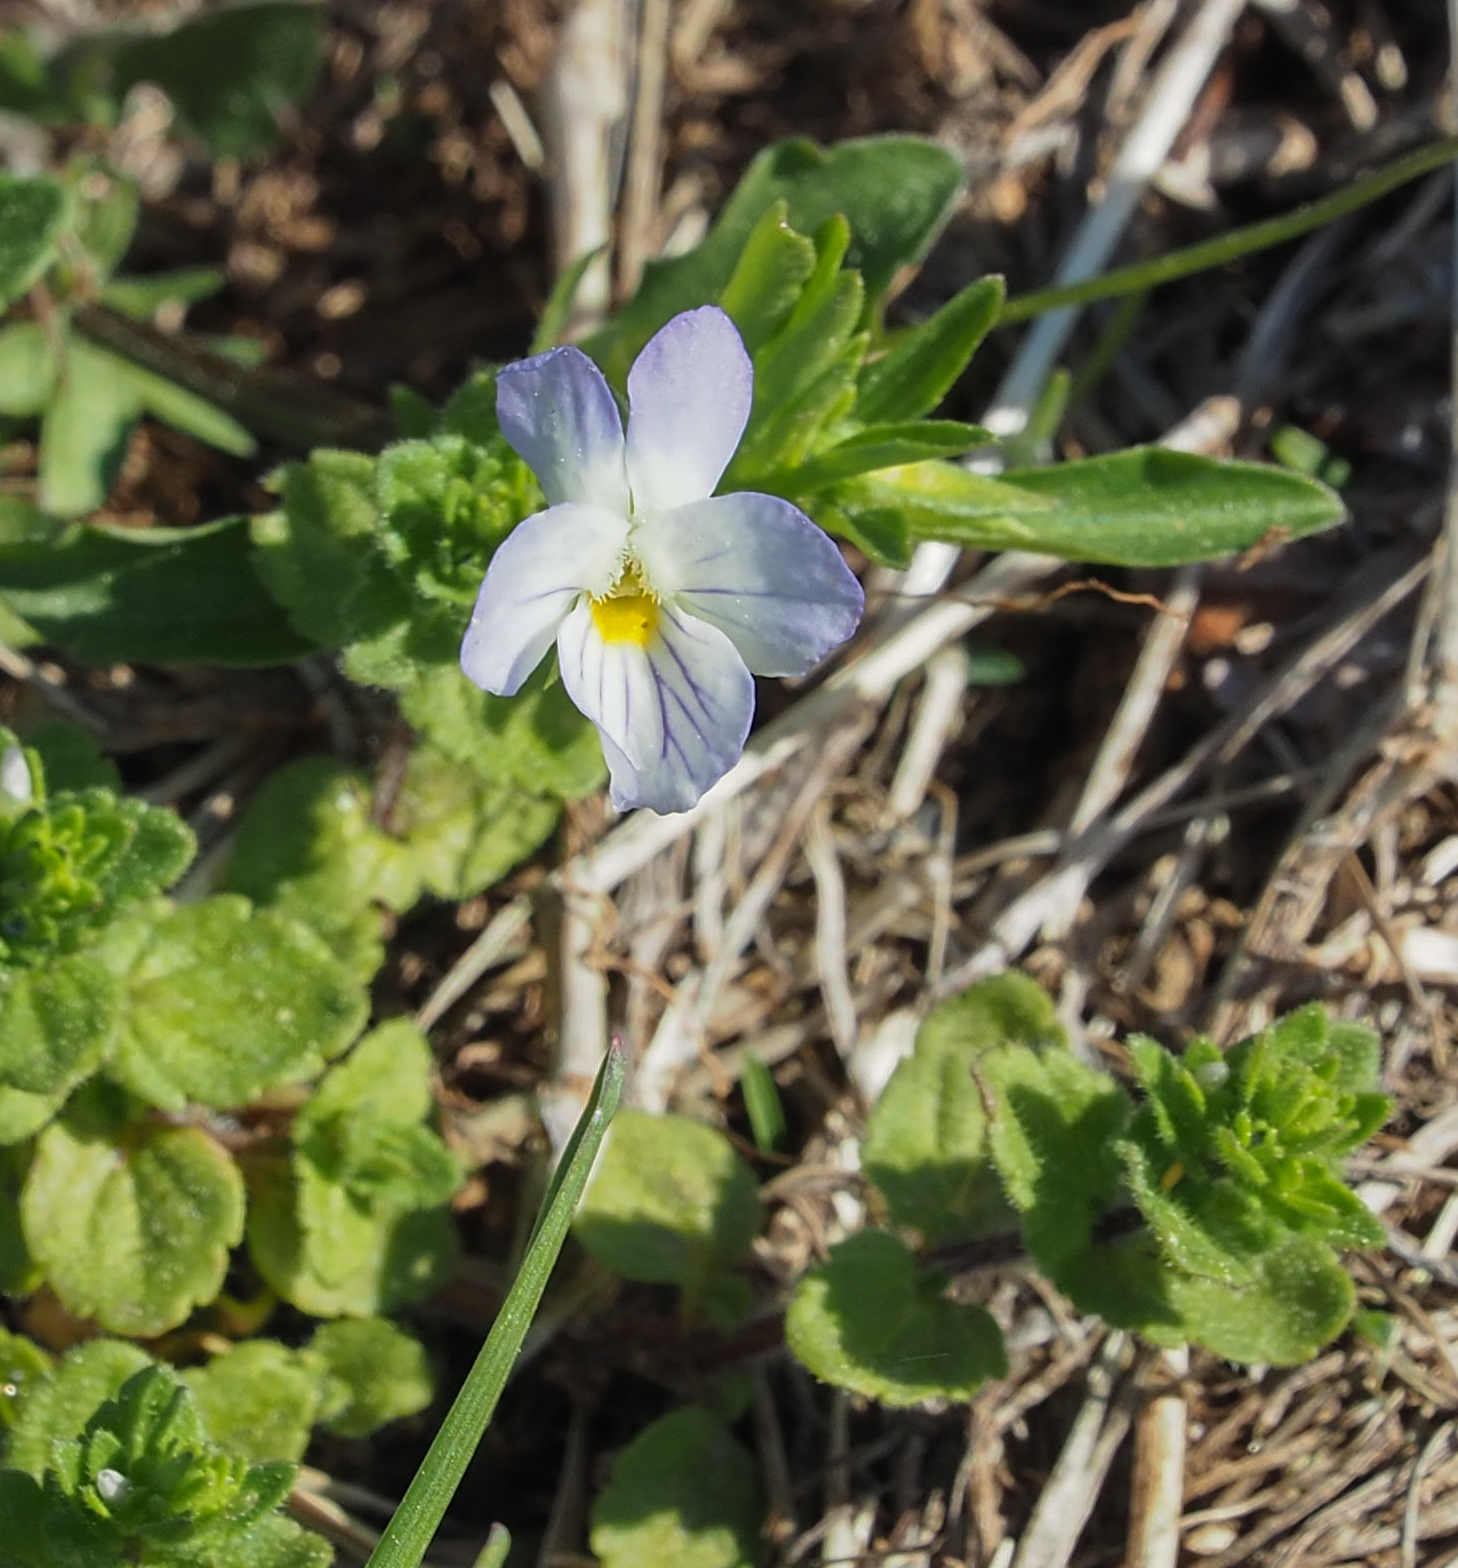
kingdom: Plantae
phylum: Tracheophyta
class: Magnoliopsida
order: Malpighiales
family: Violaceae
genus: Viola
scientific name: Viola rafinesquei
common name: American field pansy
